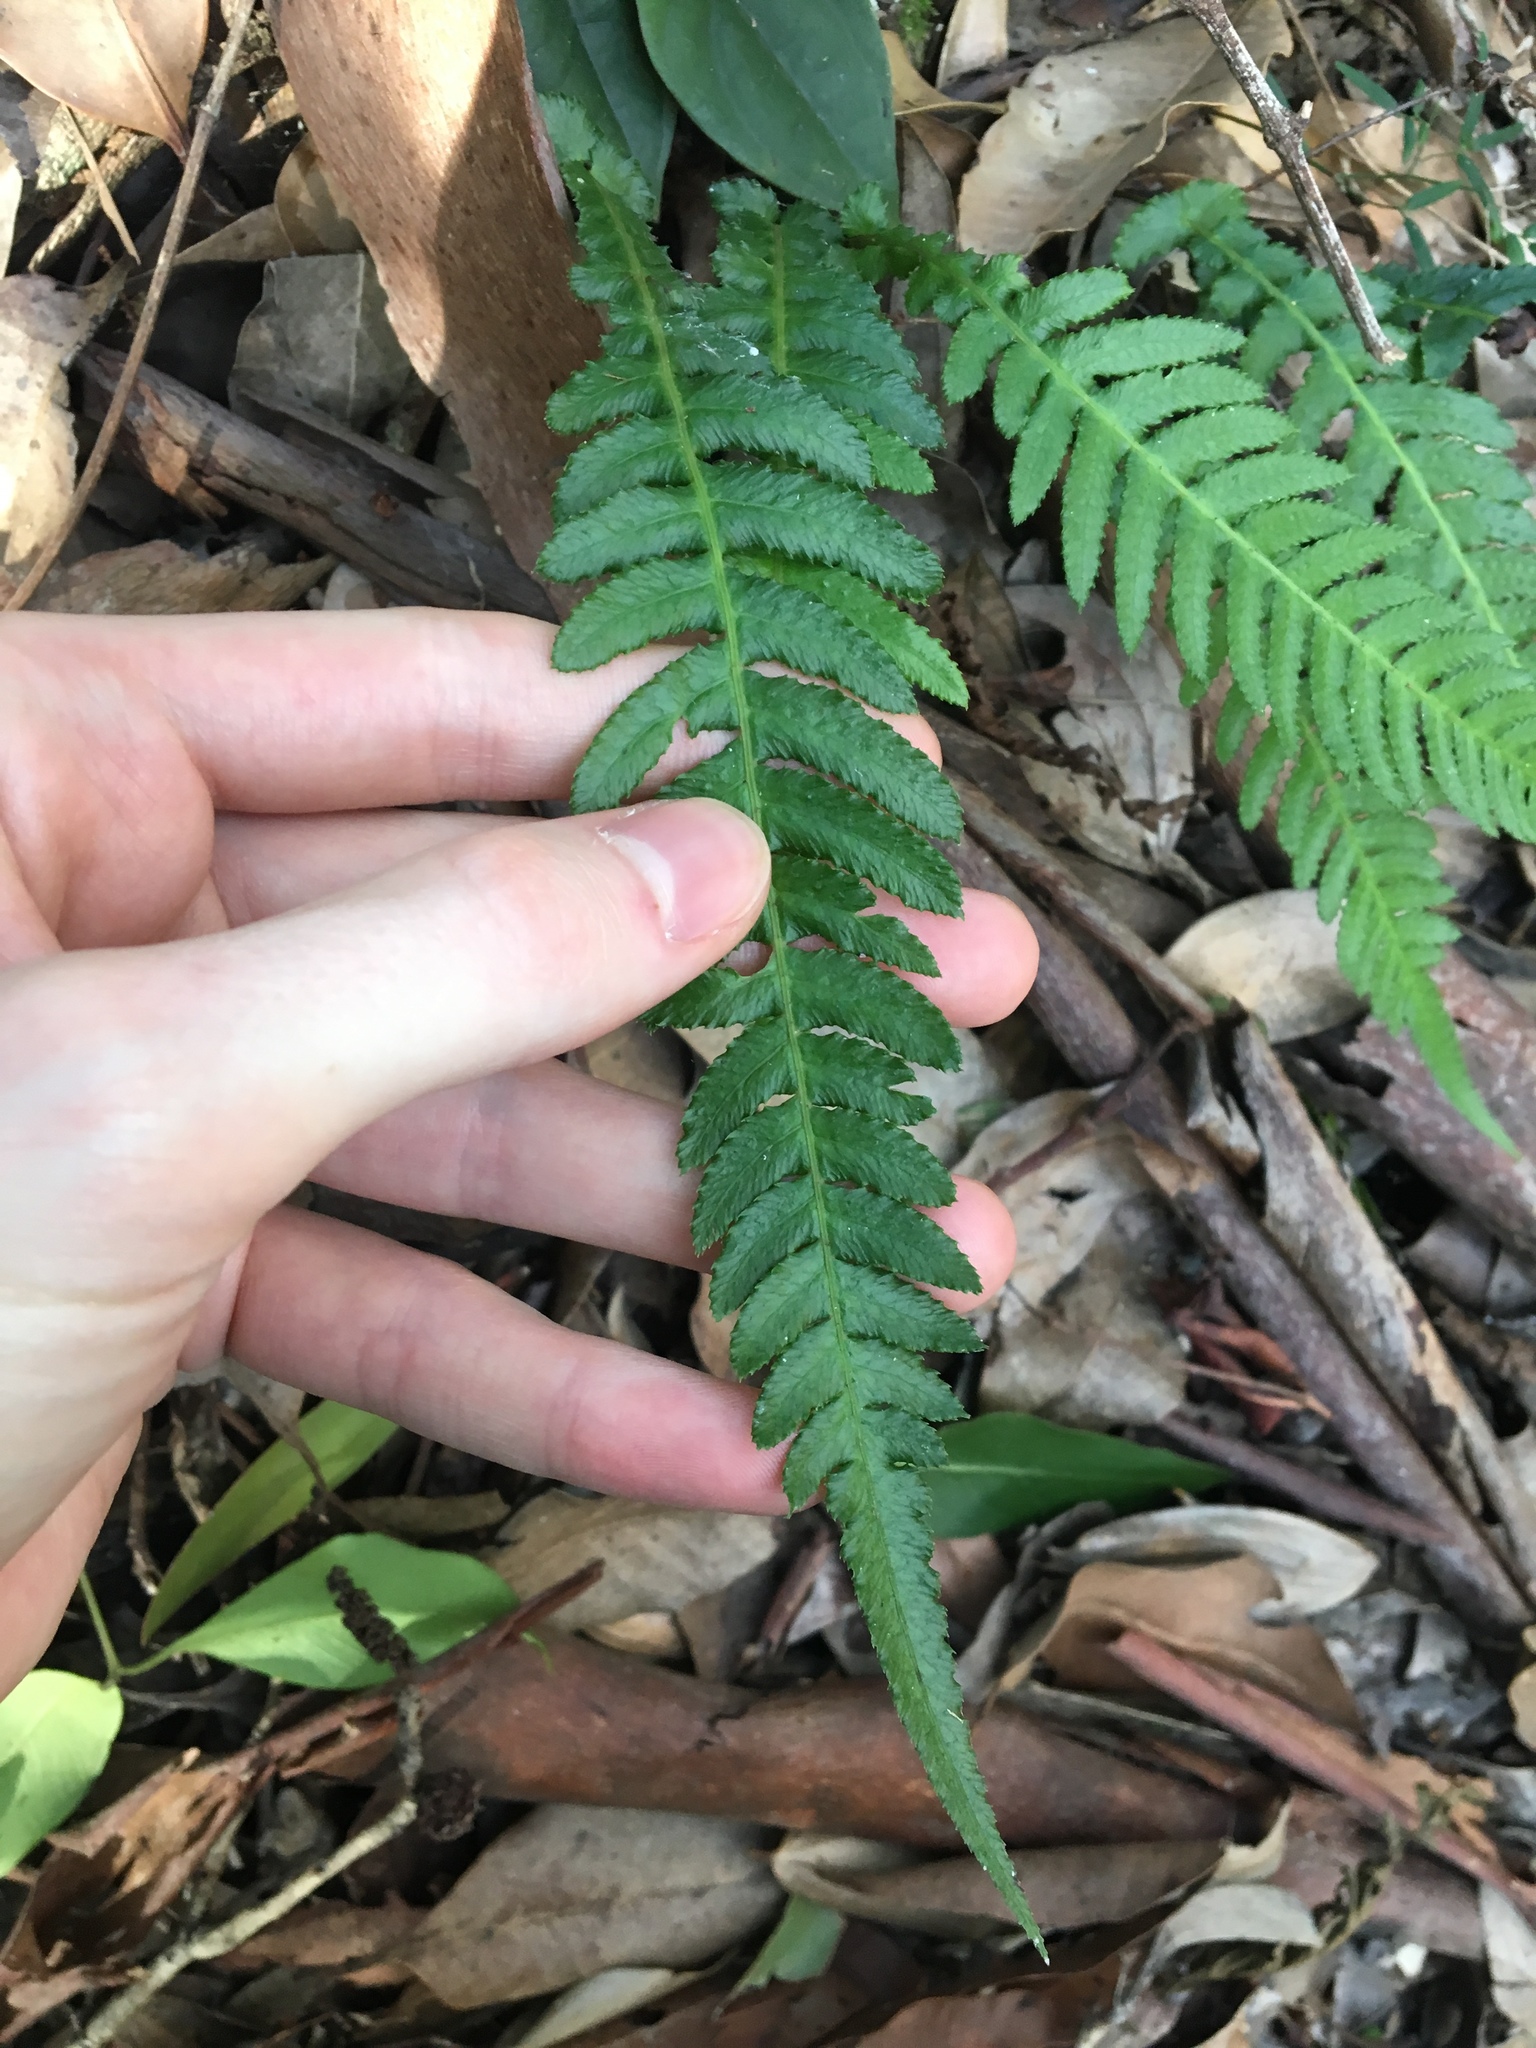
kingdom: Plantae
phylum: Tracheophyta
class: Polypodiopsida
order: Polypodiales
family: Blechnaceae
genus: Doodia
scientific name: Doodia aspera
